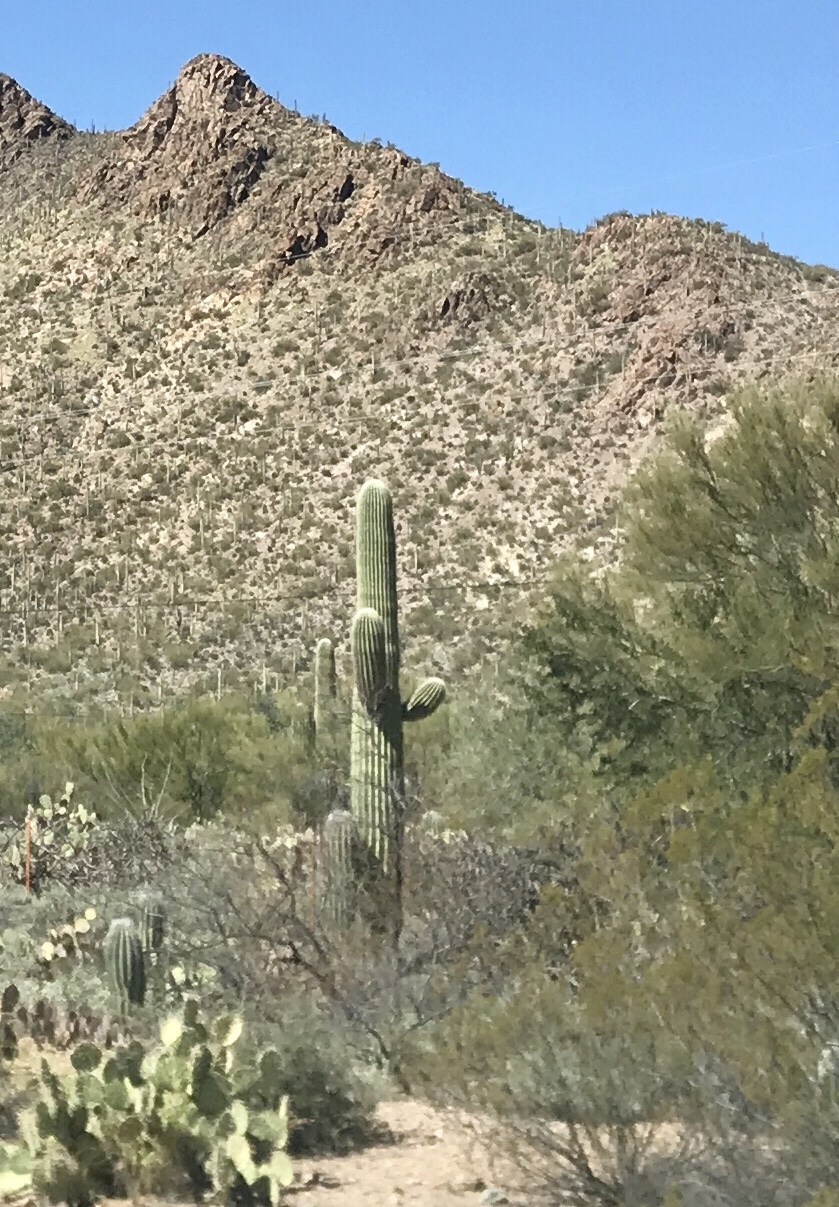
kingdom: Plantae
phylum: Tracheophyta
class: Magnoliopsida
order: Caryophyllales
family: Cactaceae
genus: Carnegiea
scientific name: Carnegiea gigantea
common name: Saguaro
